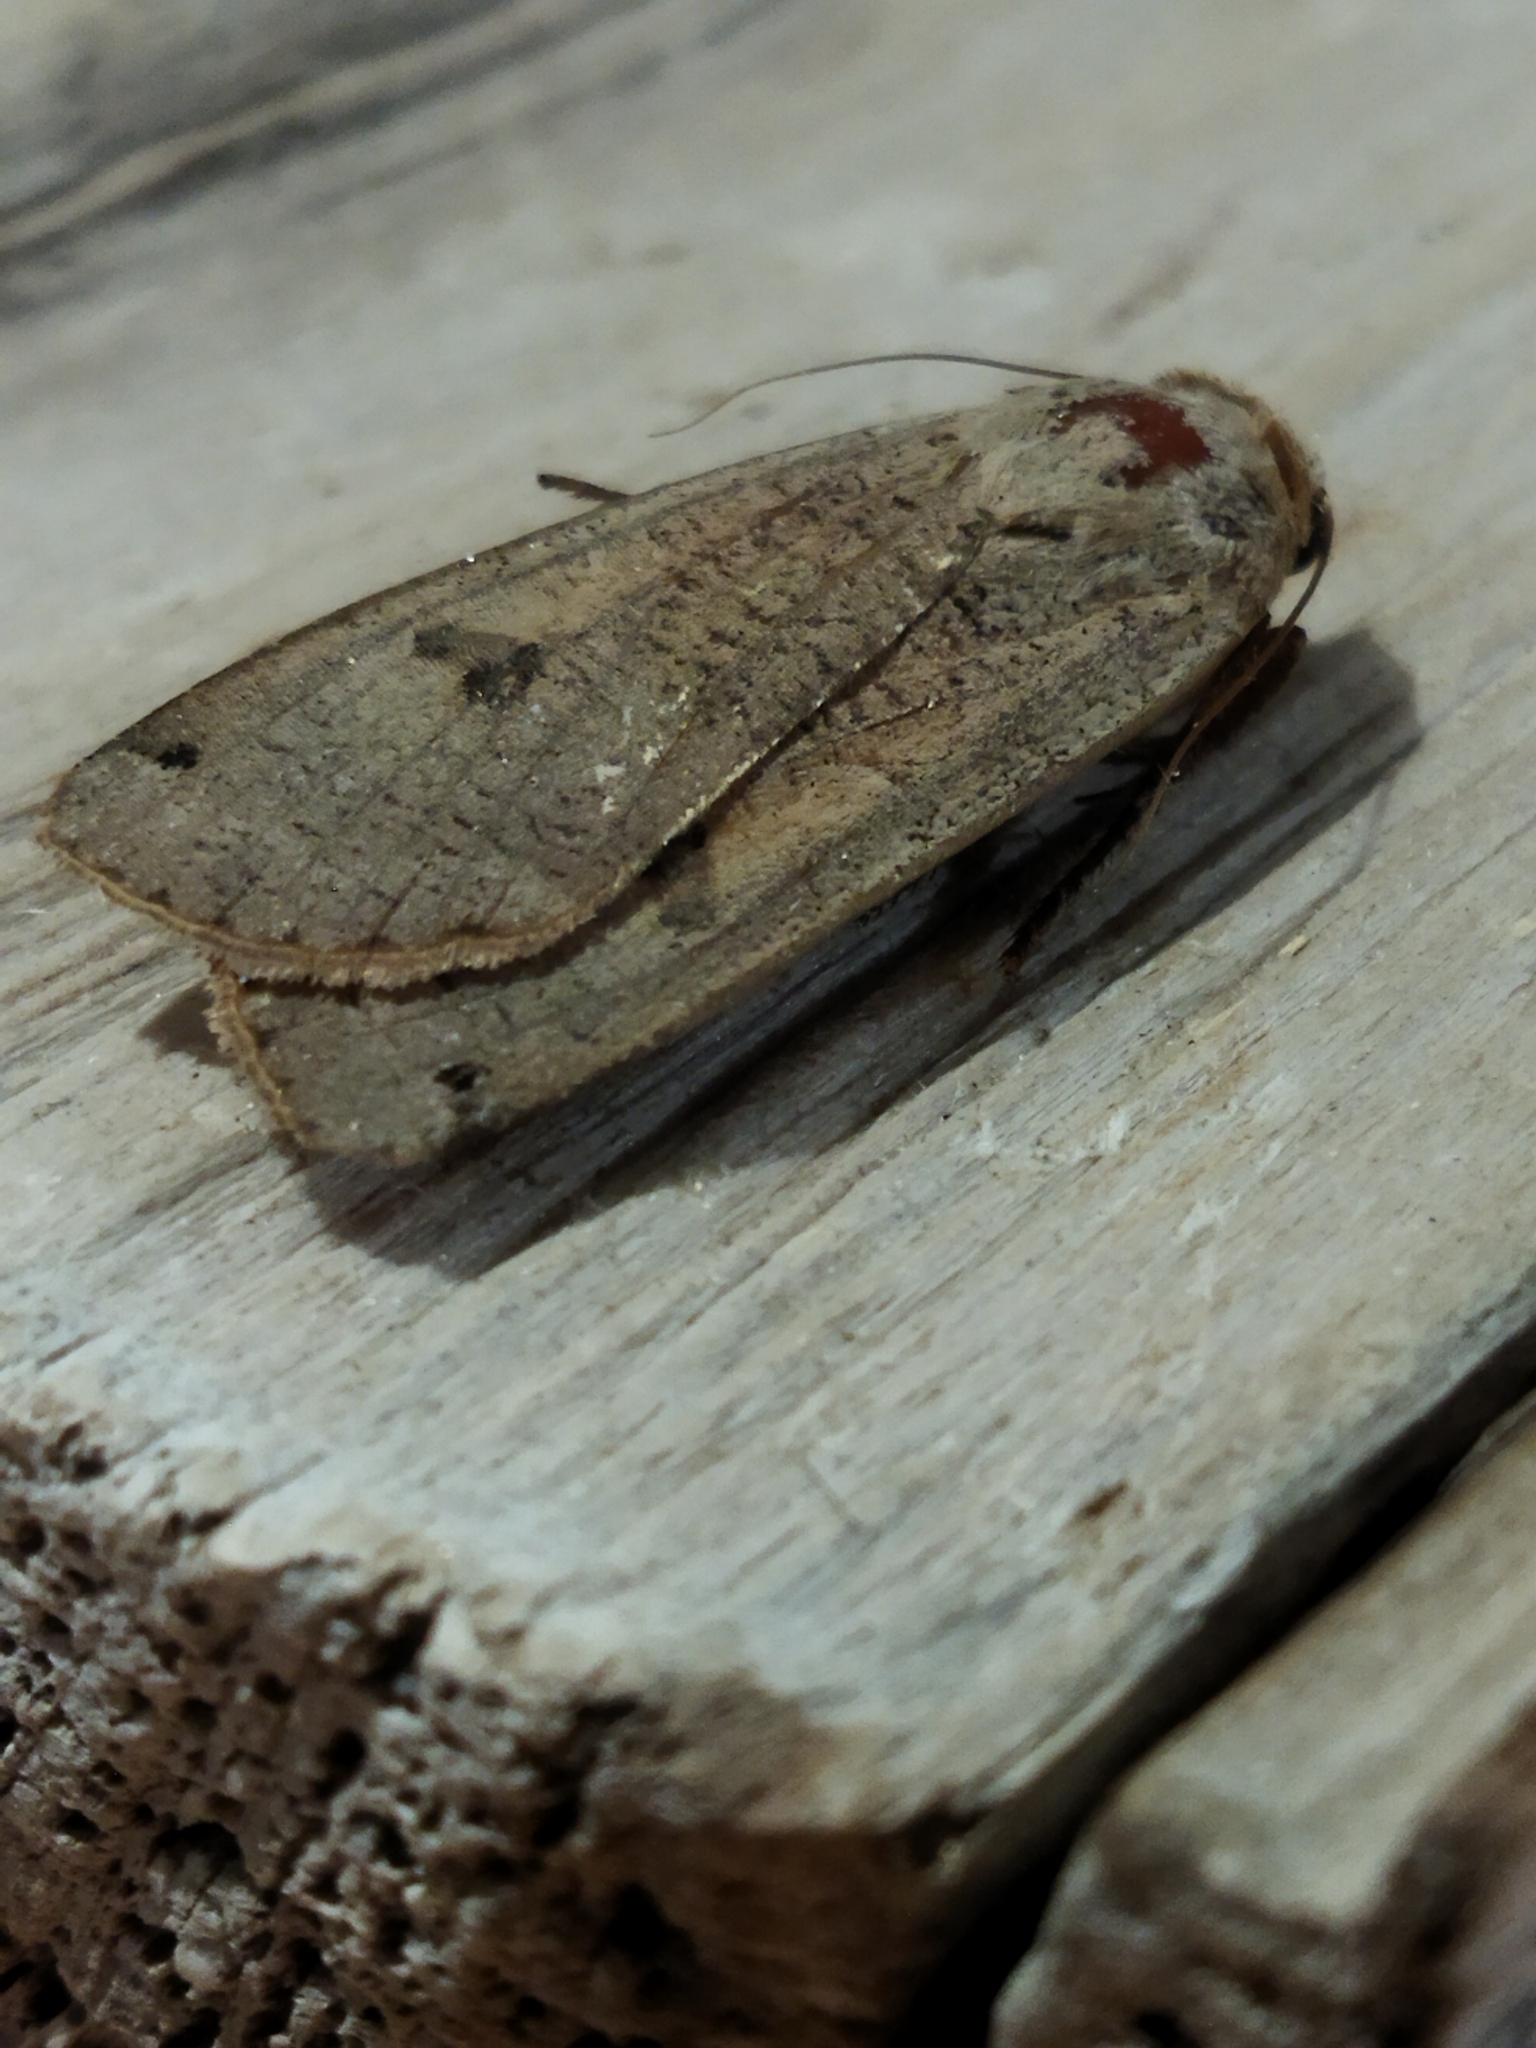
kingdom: Animalia
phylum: Arthropoda
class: Insecta
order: Lepidoptera
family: Noctuidae
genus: Noctua
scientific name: Noctua pronuba
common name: Large yellow underwing
